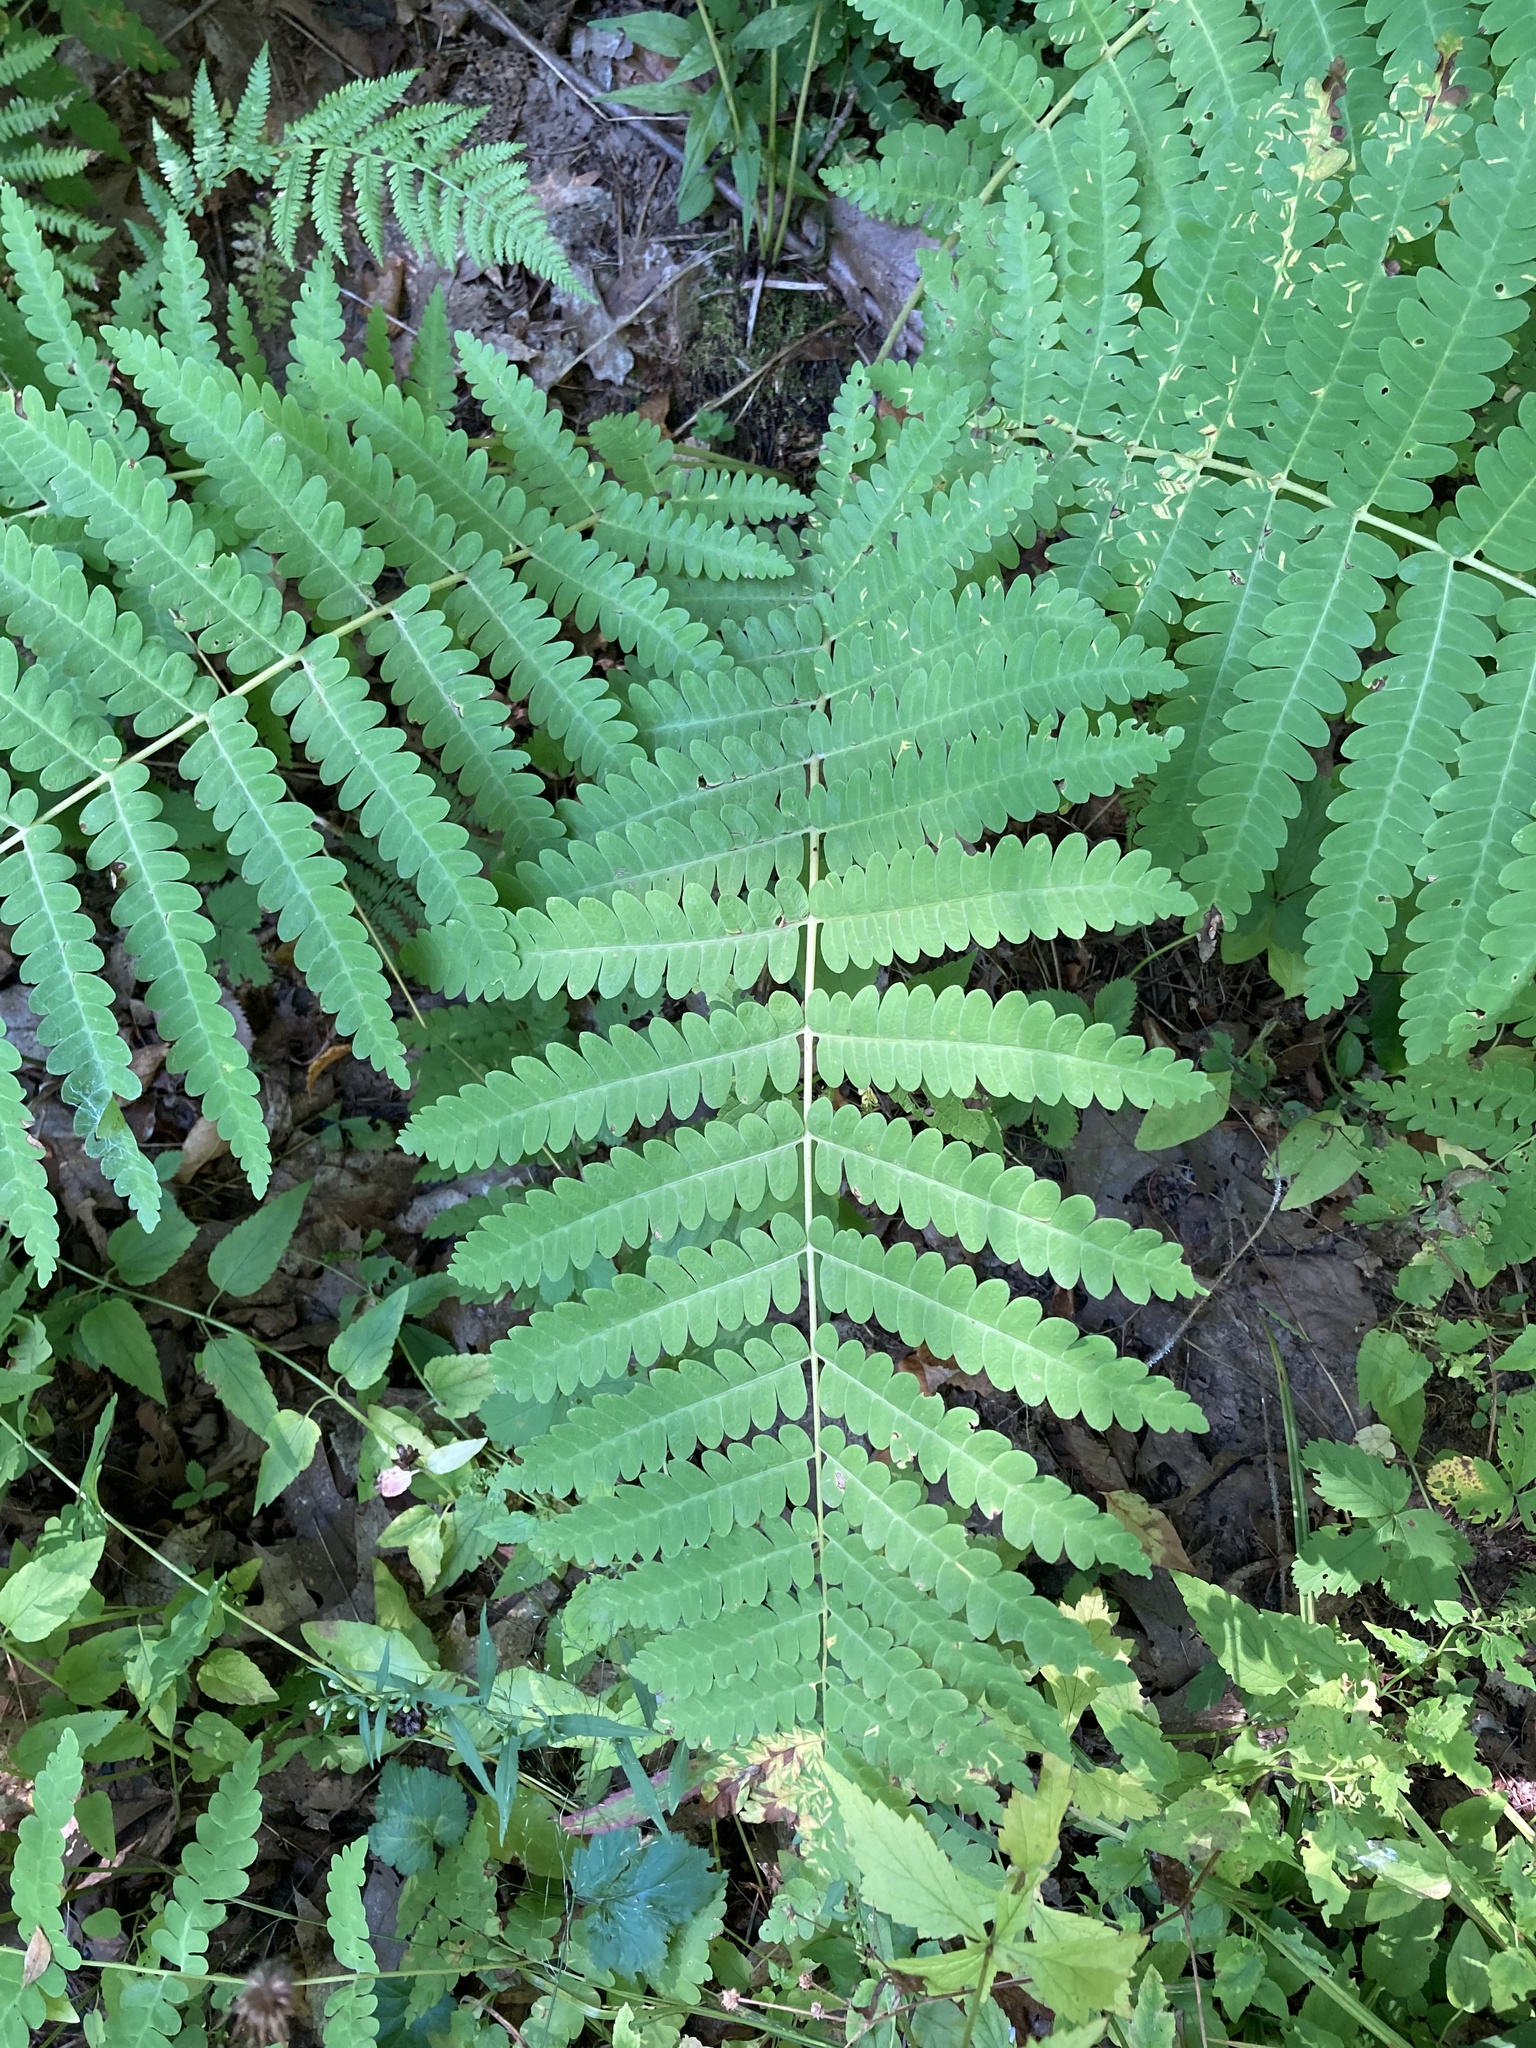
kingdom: Plantae
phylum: Tracheophyta
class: Polypodiopsida
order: Osmundales
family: Osmundaceae
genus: Claytosmunda
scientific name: Claytosmunda claytoniana
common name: Clayton's fern
